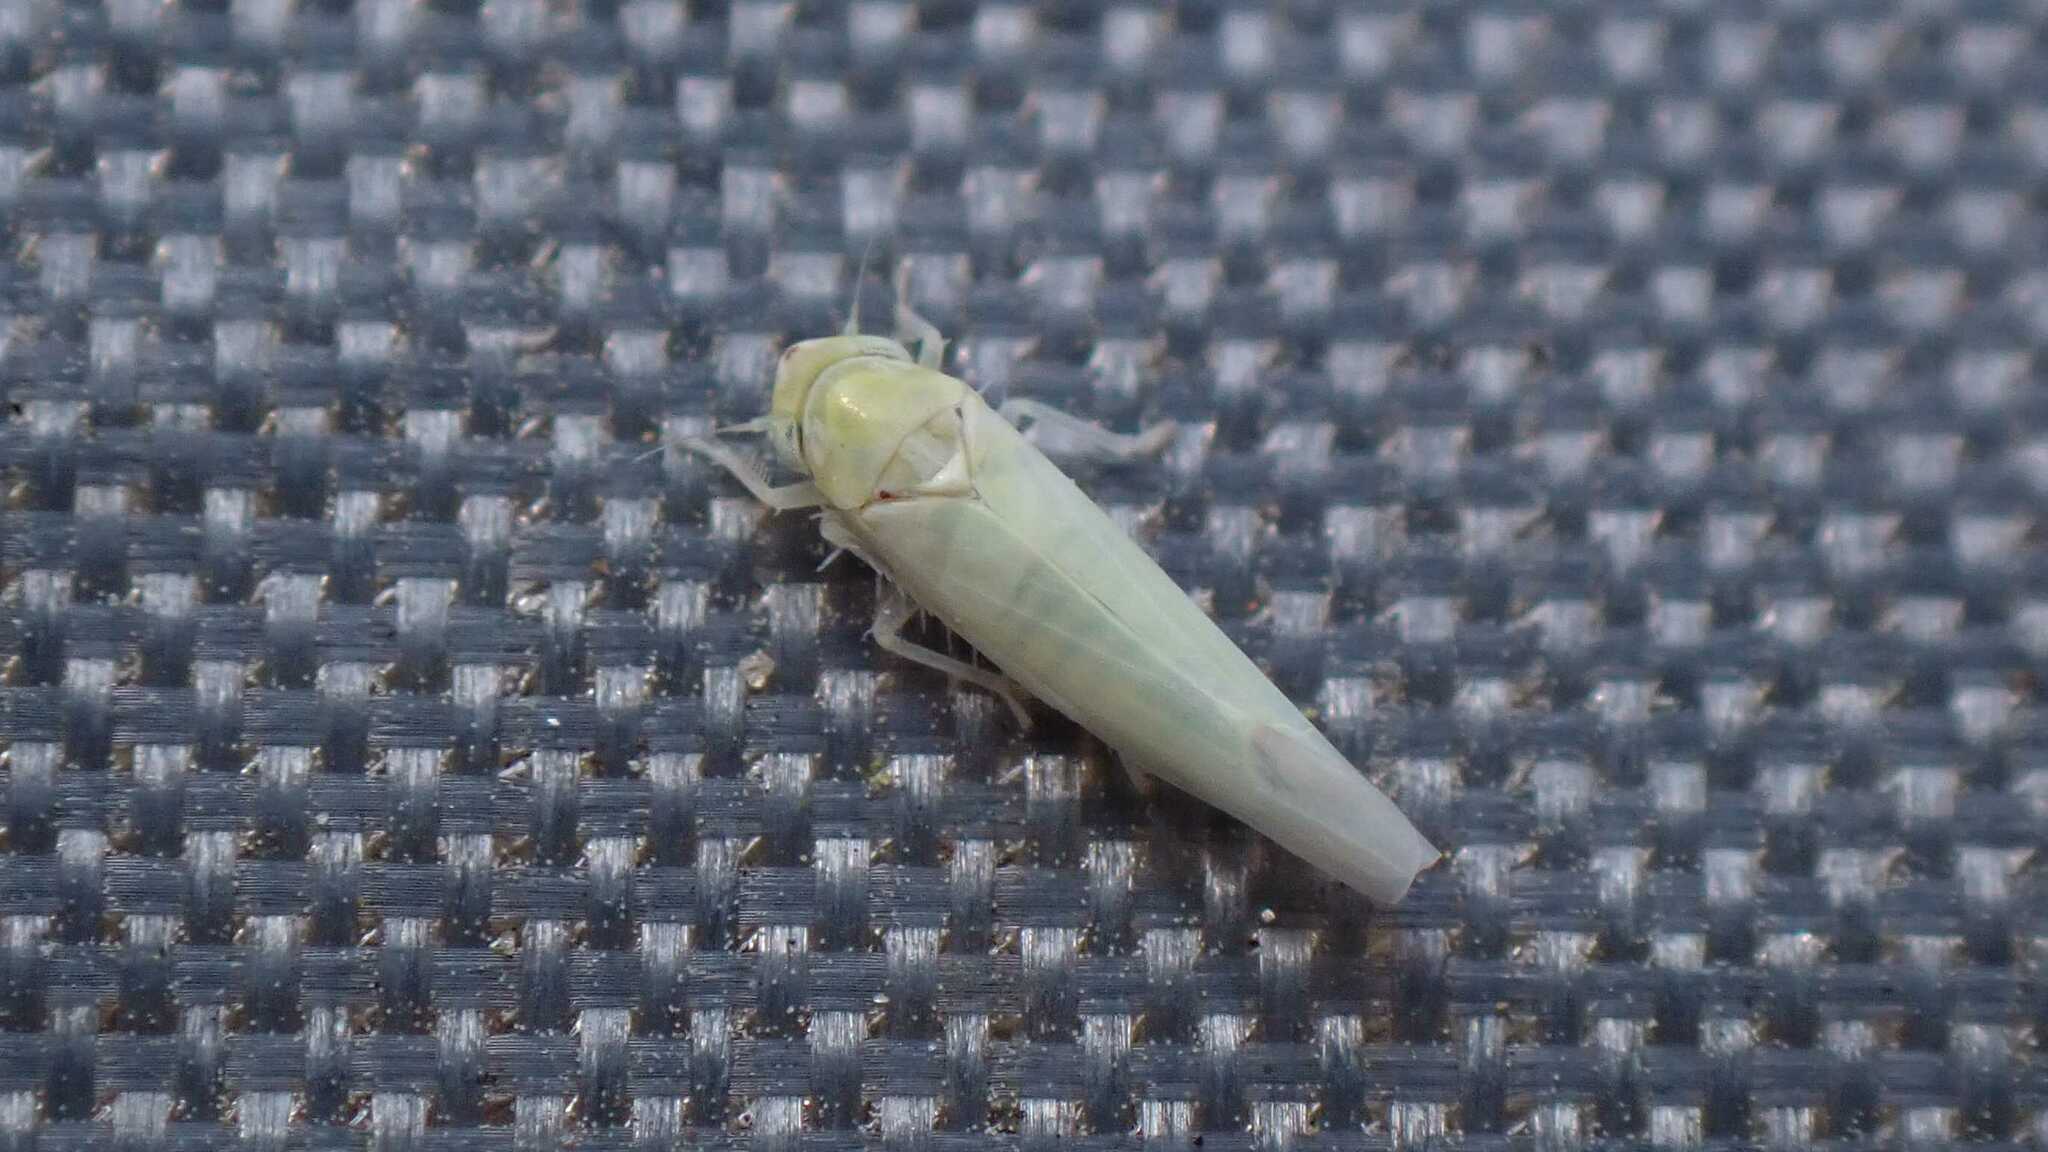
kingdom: Animalia
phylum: Arthropoda
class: Insecta
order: Hemiptera
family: Cicadellidae
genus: Zygina
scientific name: Zygina nivea
